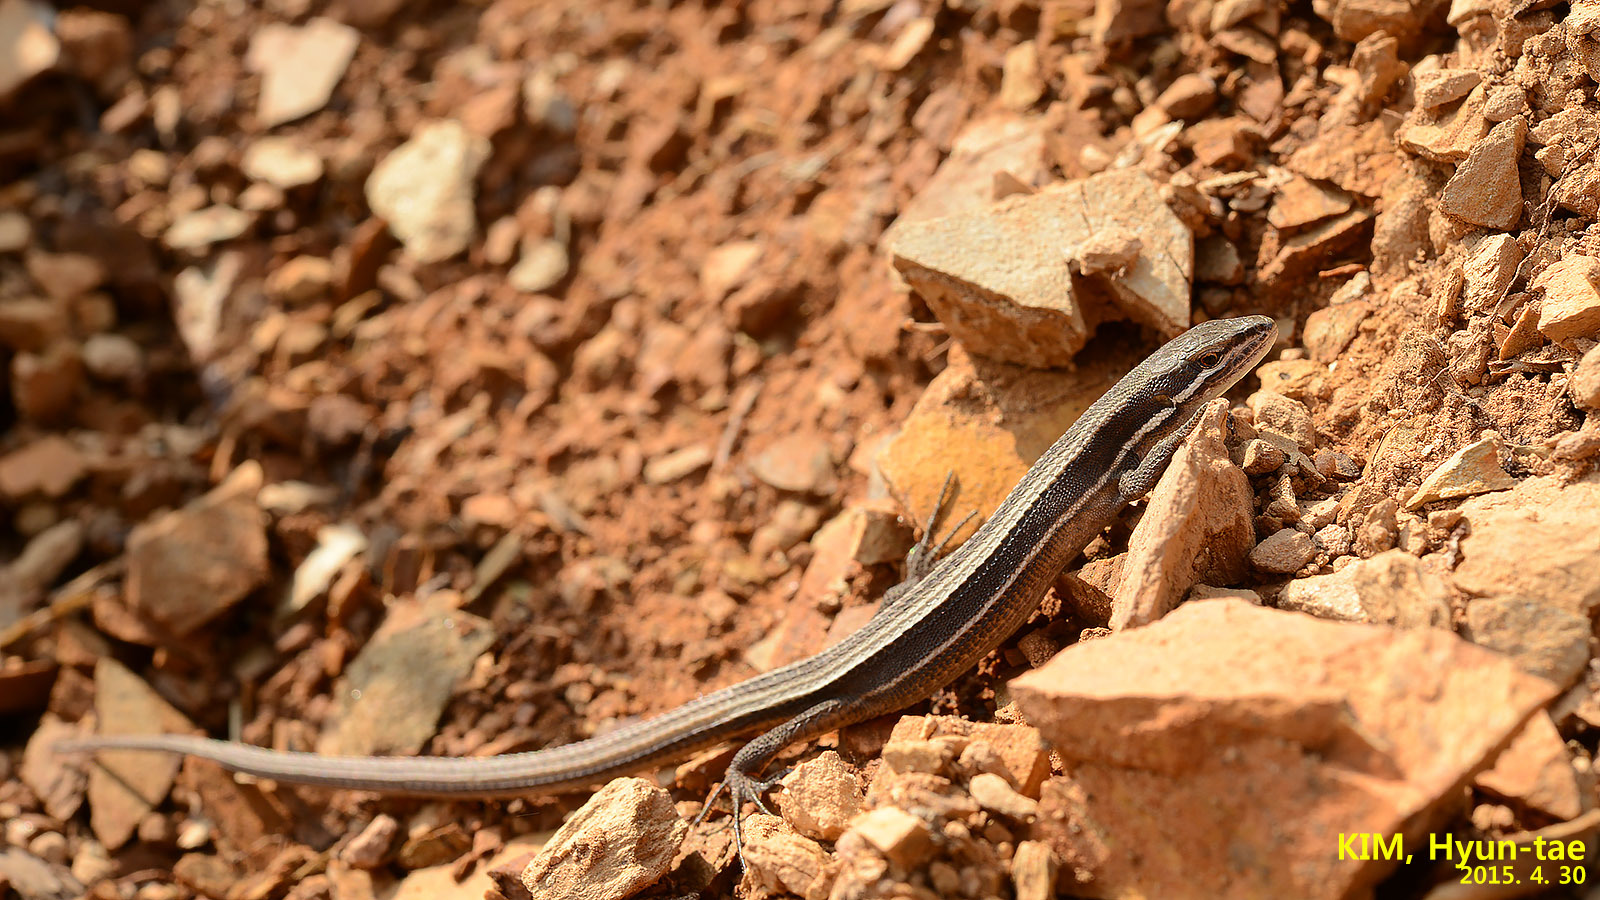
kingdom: Animalia
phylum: Chordata
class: Squamata
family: Lacertidae
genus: Takydromus
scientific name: Takydromus wolteri
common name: Mountain grass lizard
